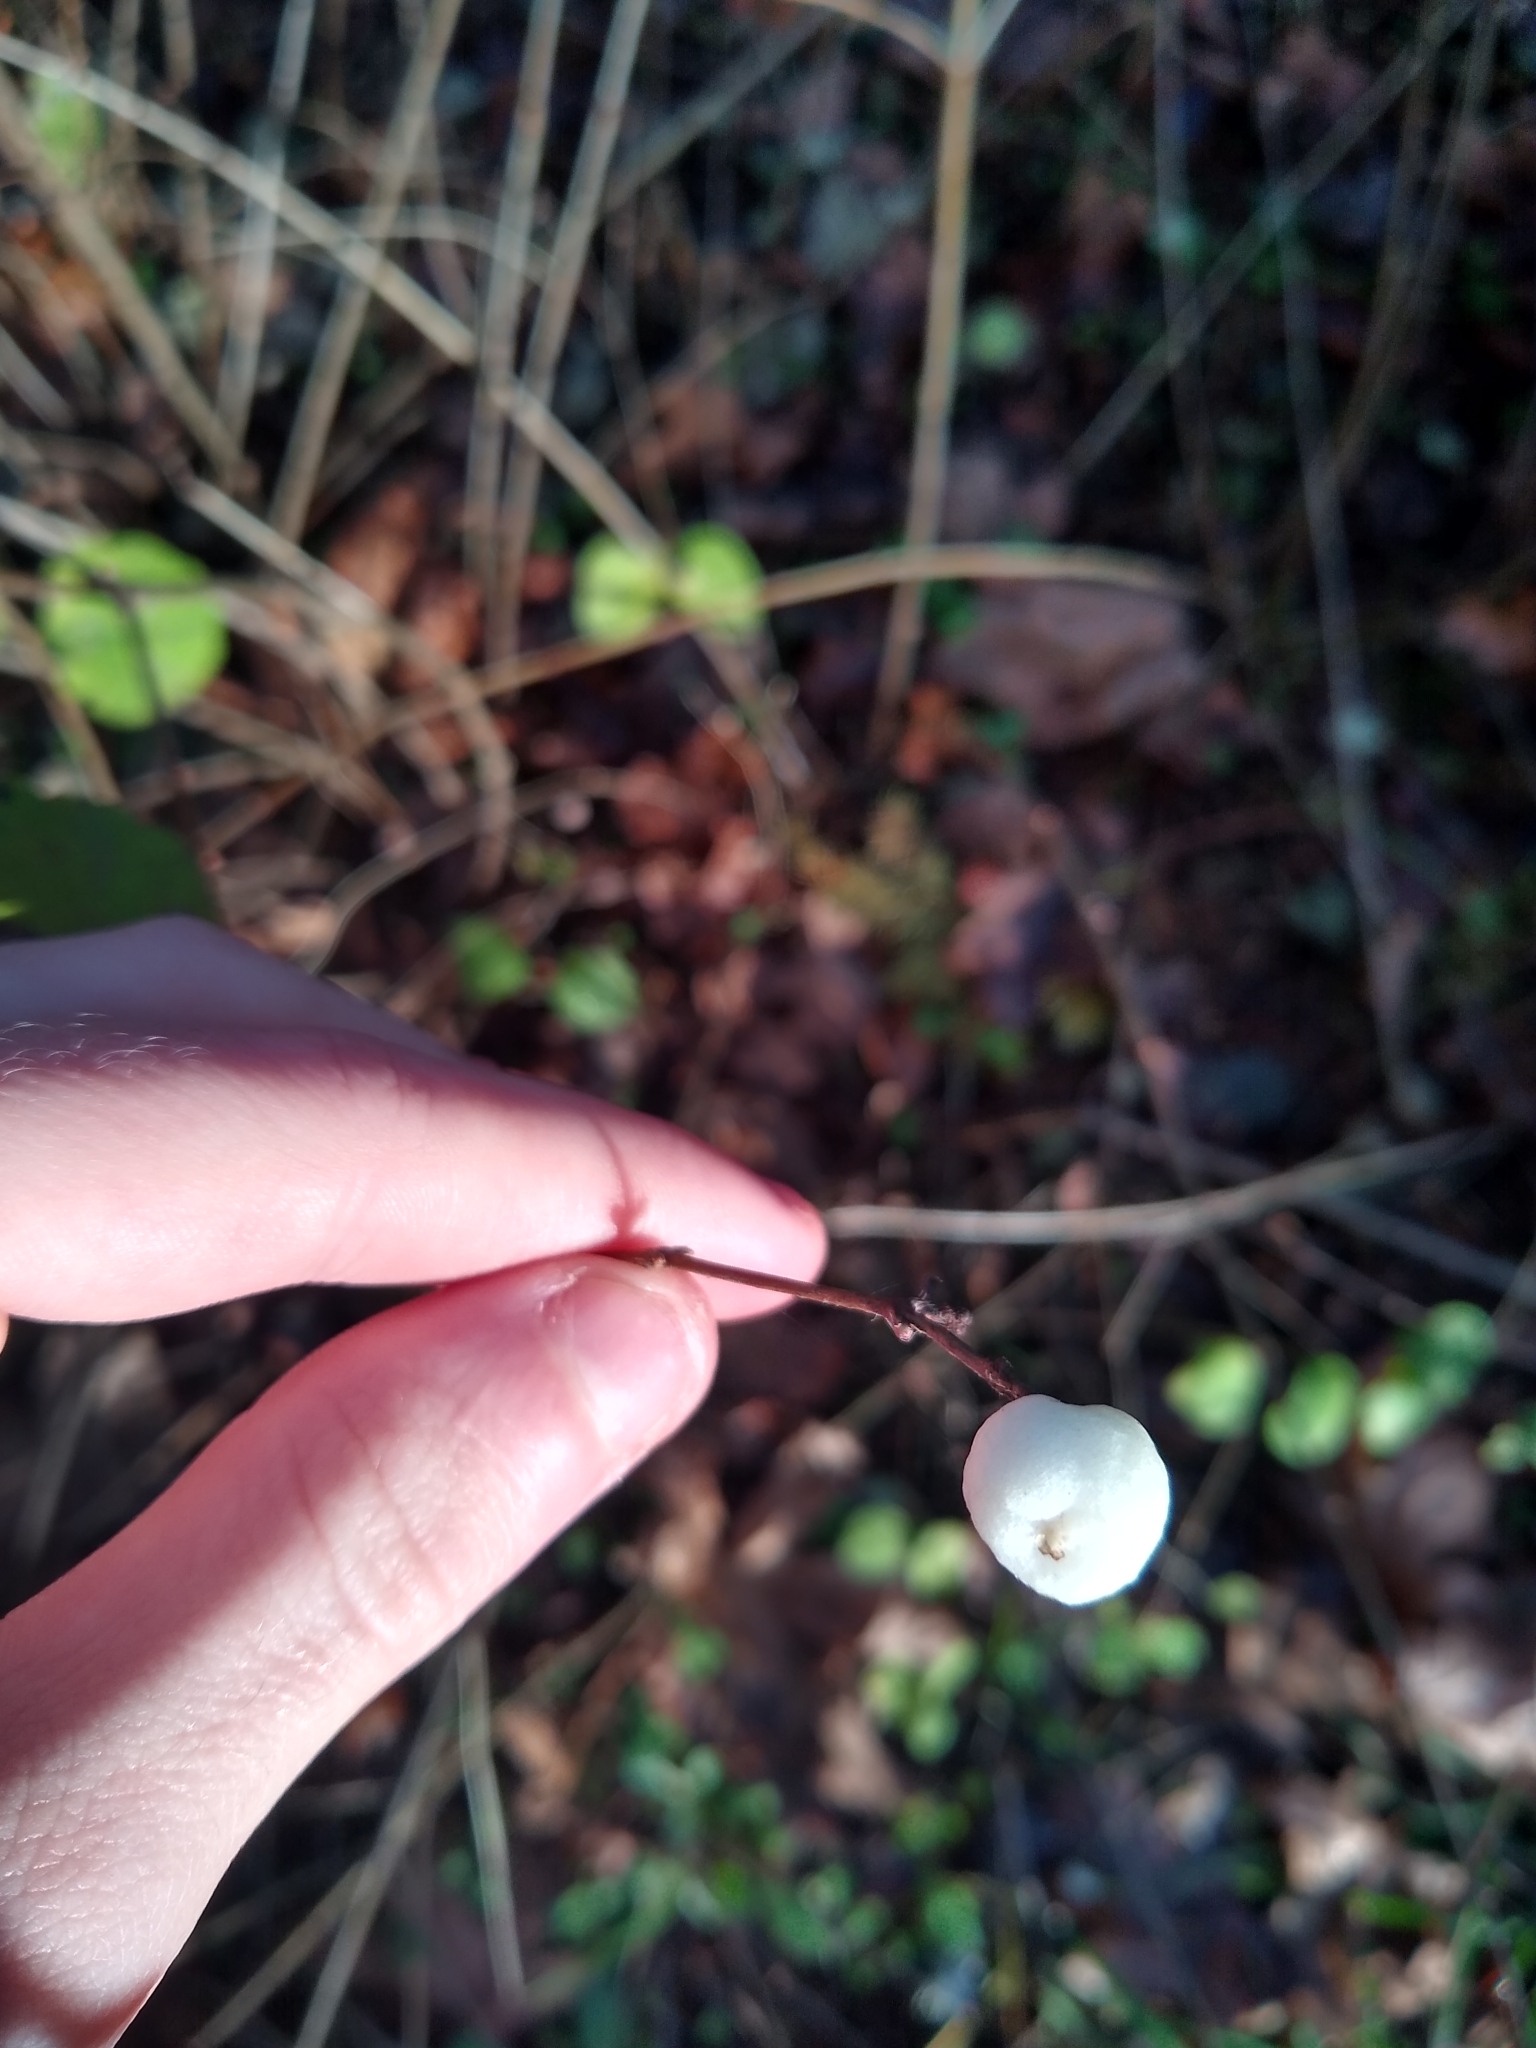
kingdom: Plantae
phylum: Tracheophyta
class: Magnoliopsida
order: Dipsacales
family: Caprifoliaceae
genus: Symphoricarpos
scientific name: Symphoricarpos albus
